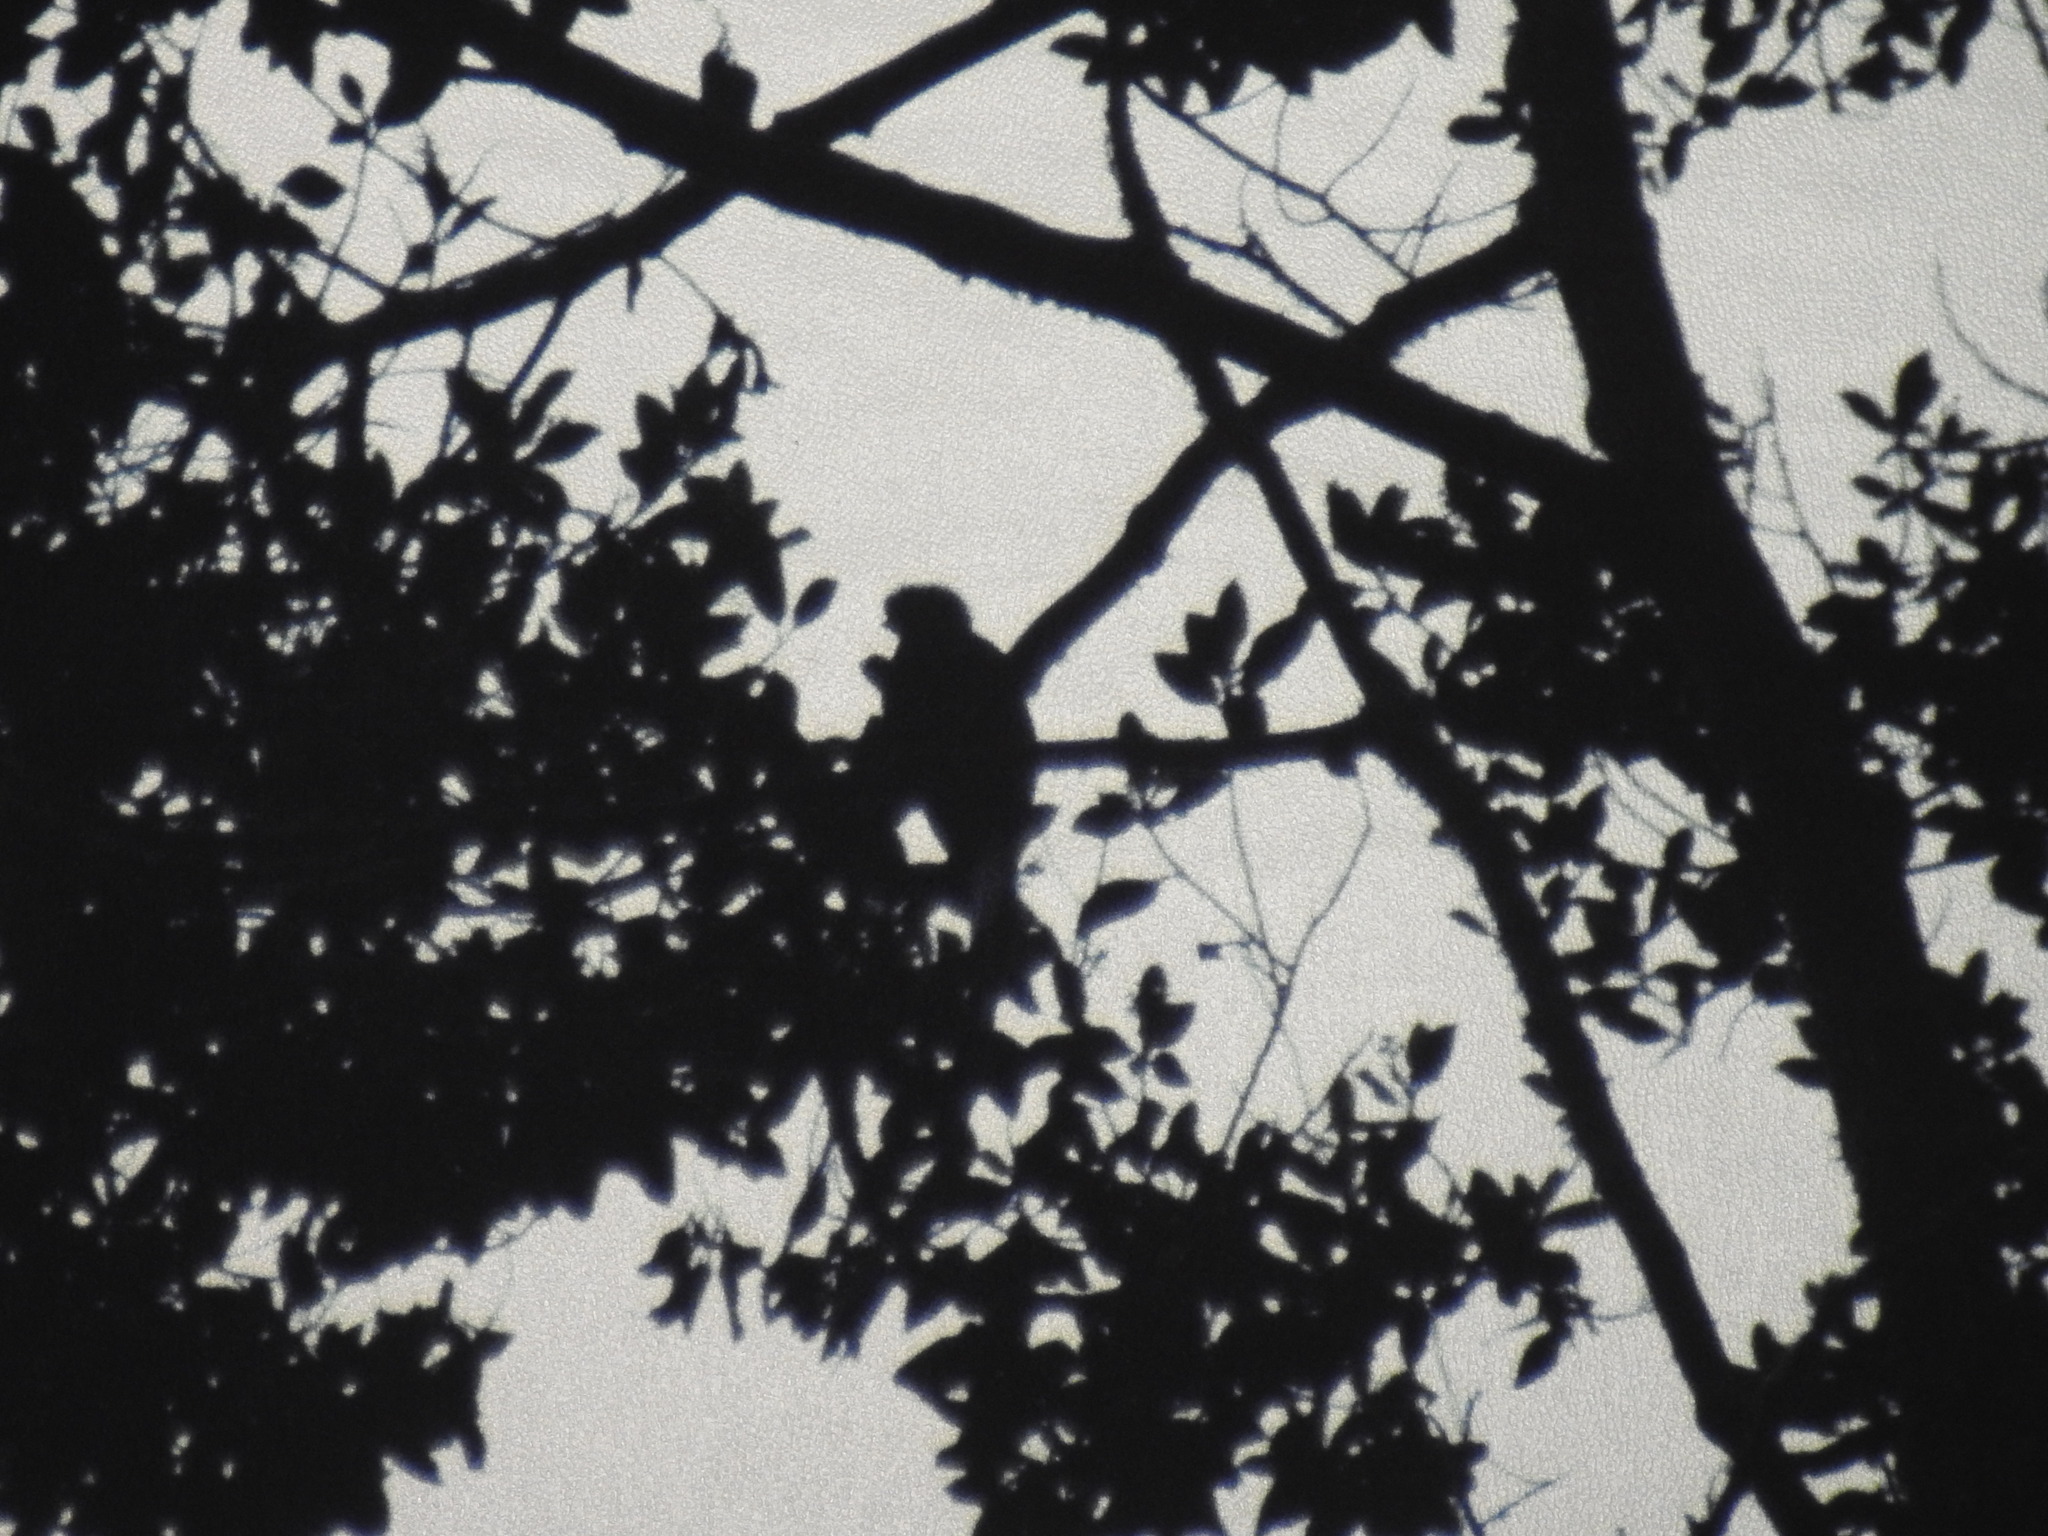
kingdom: Animalia
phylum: Chordata
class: Aves
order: Trogoniformes
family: Trogonidae
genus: Pharomachrus
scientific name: Pharomachrus mocinno
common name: Resplendent quetzal
